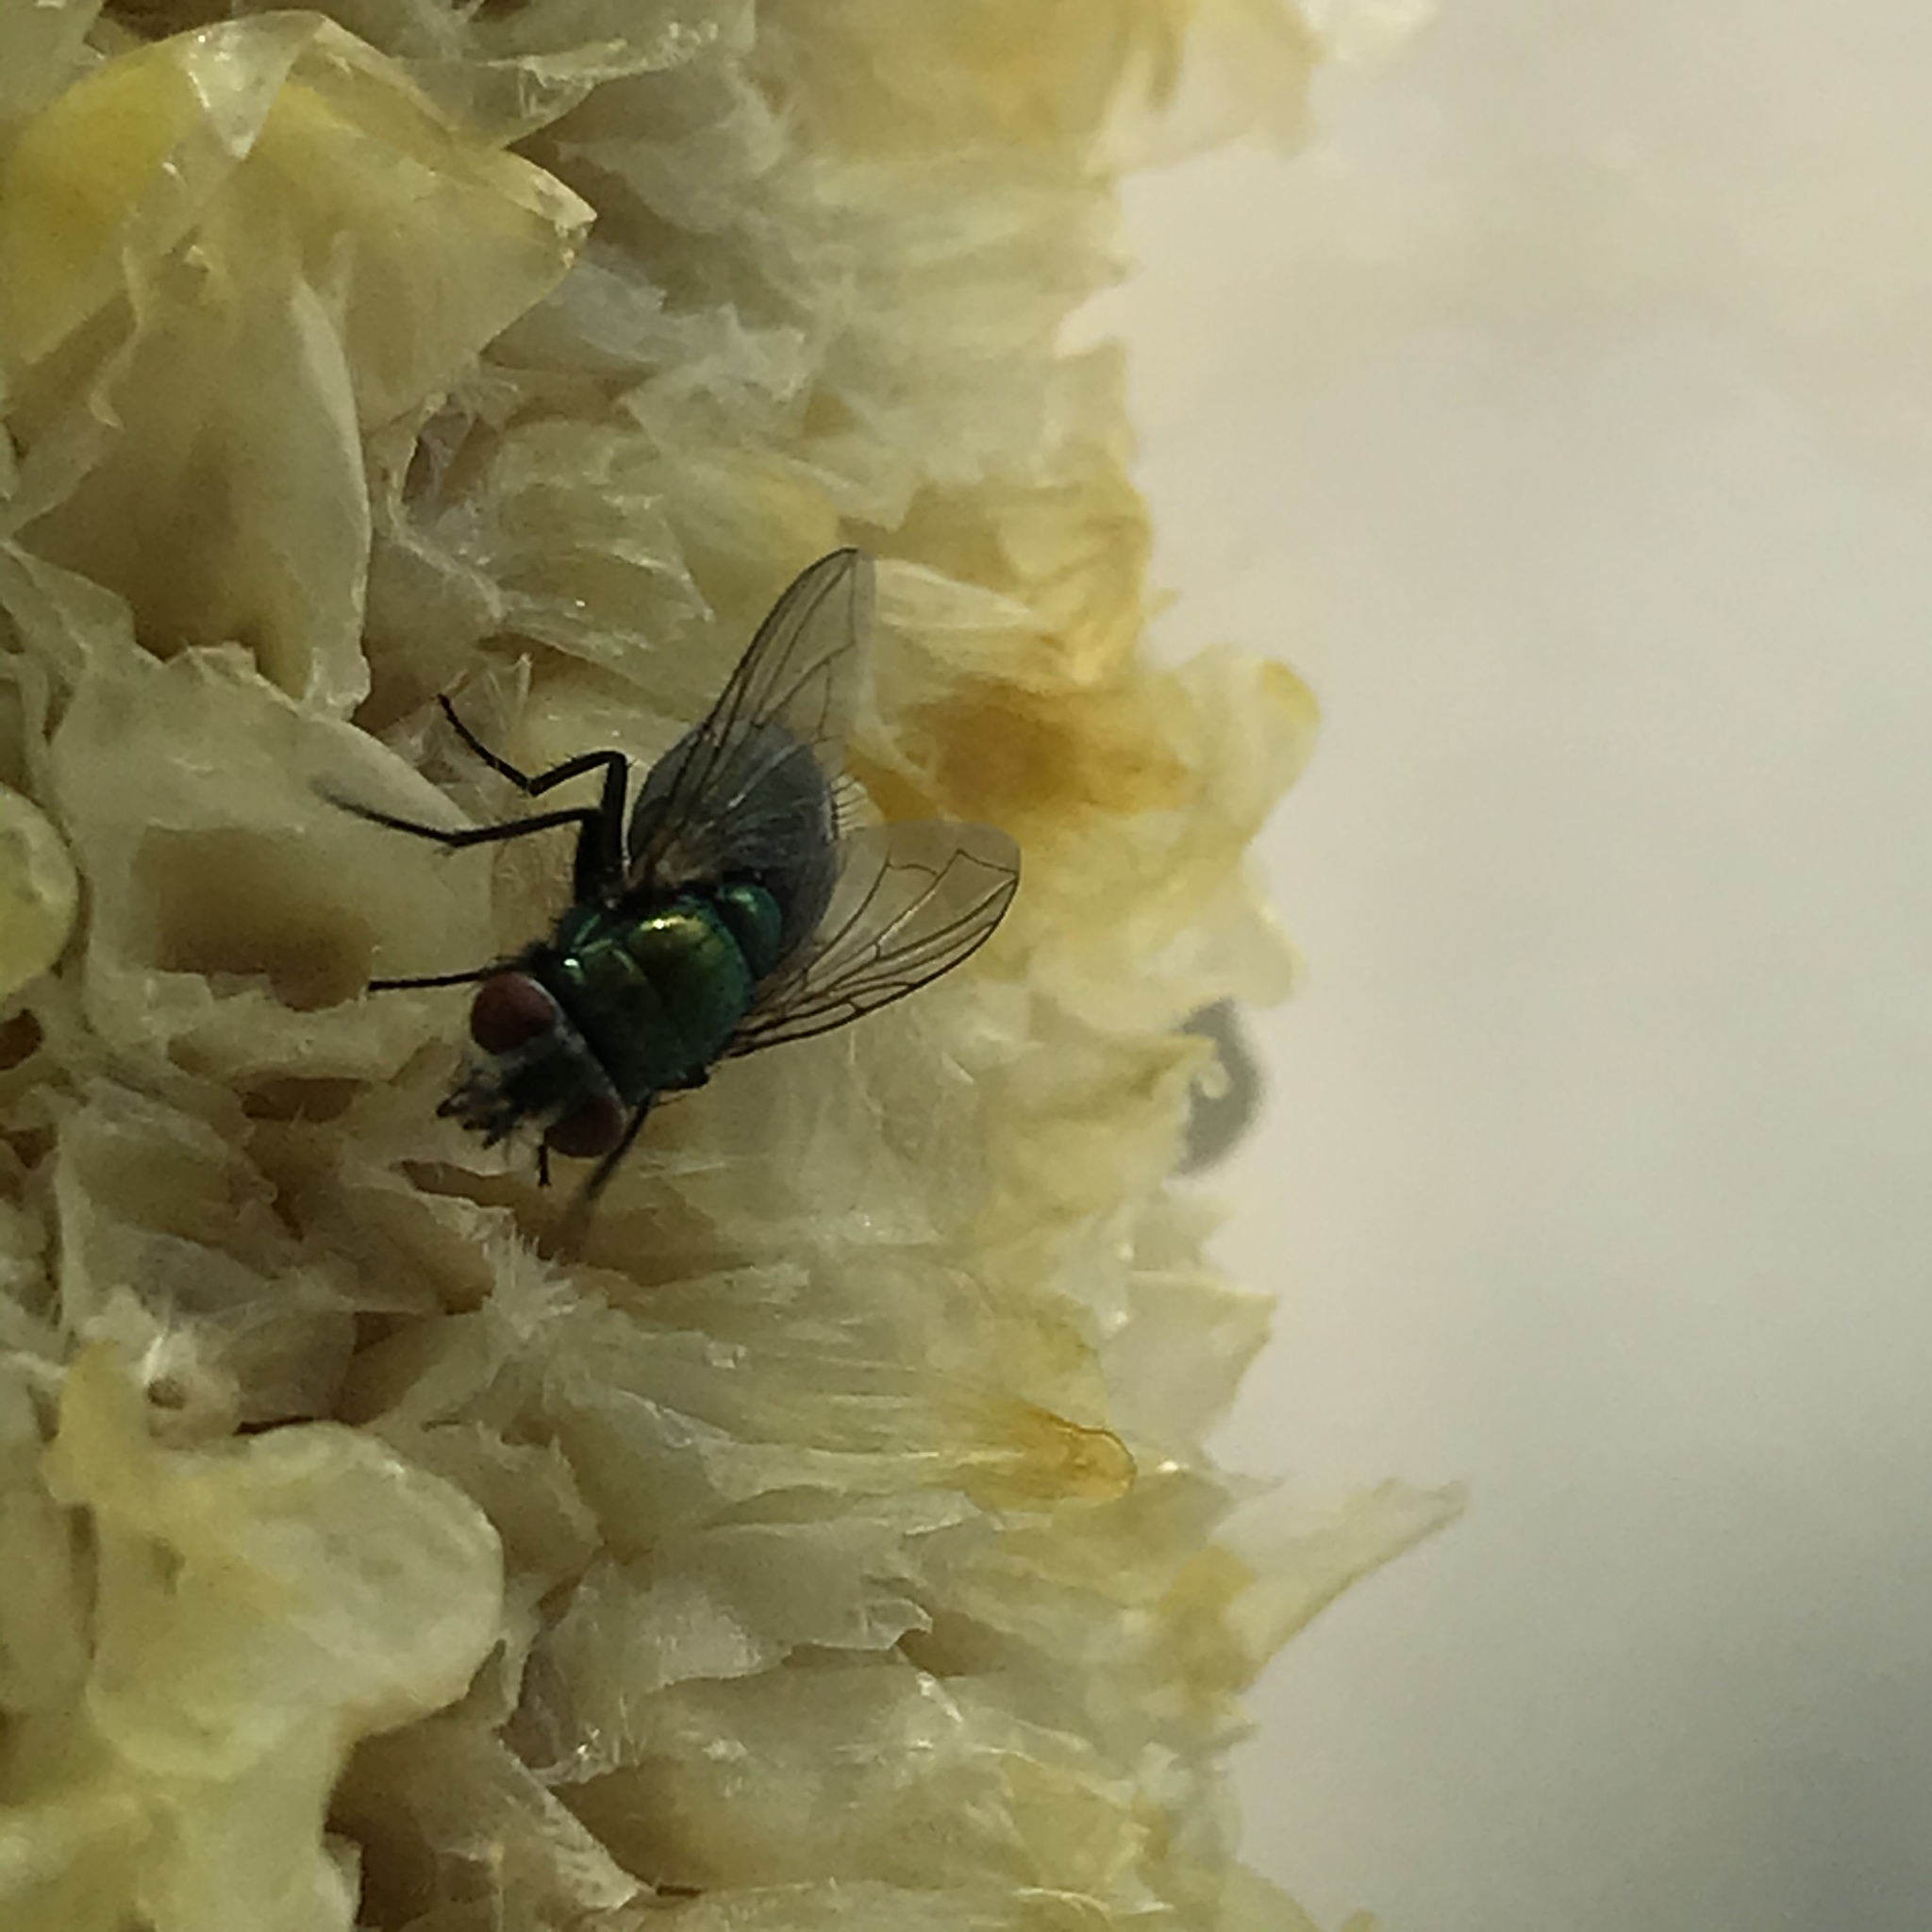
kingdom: Animalia
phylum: Arthropoda
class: Insecta
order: Diptera
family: Calliphoridae
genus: Lucilia
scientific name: Lucilia sericata
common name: Blow fly
